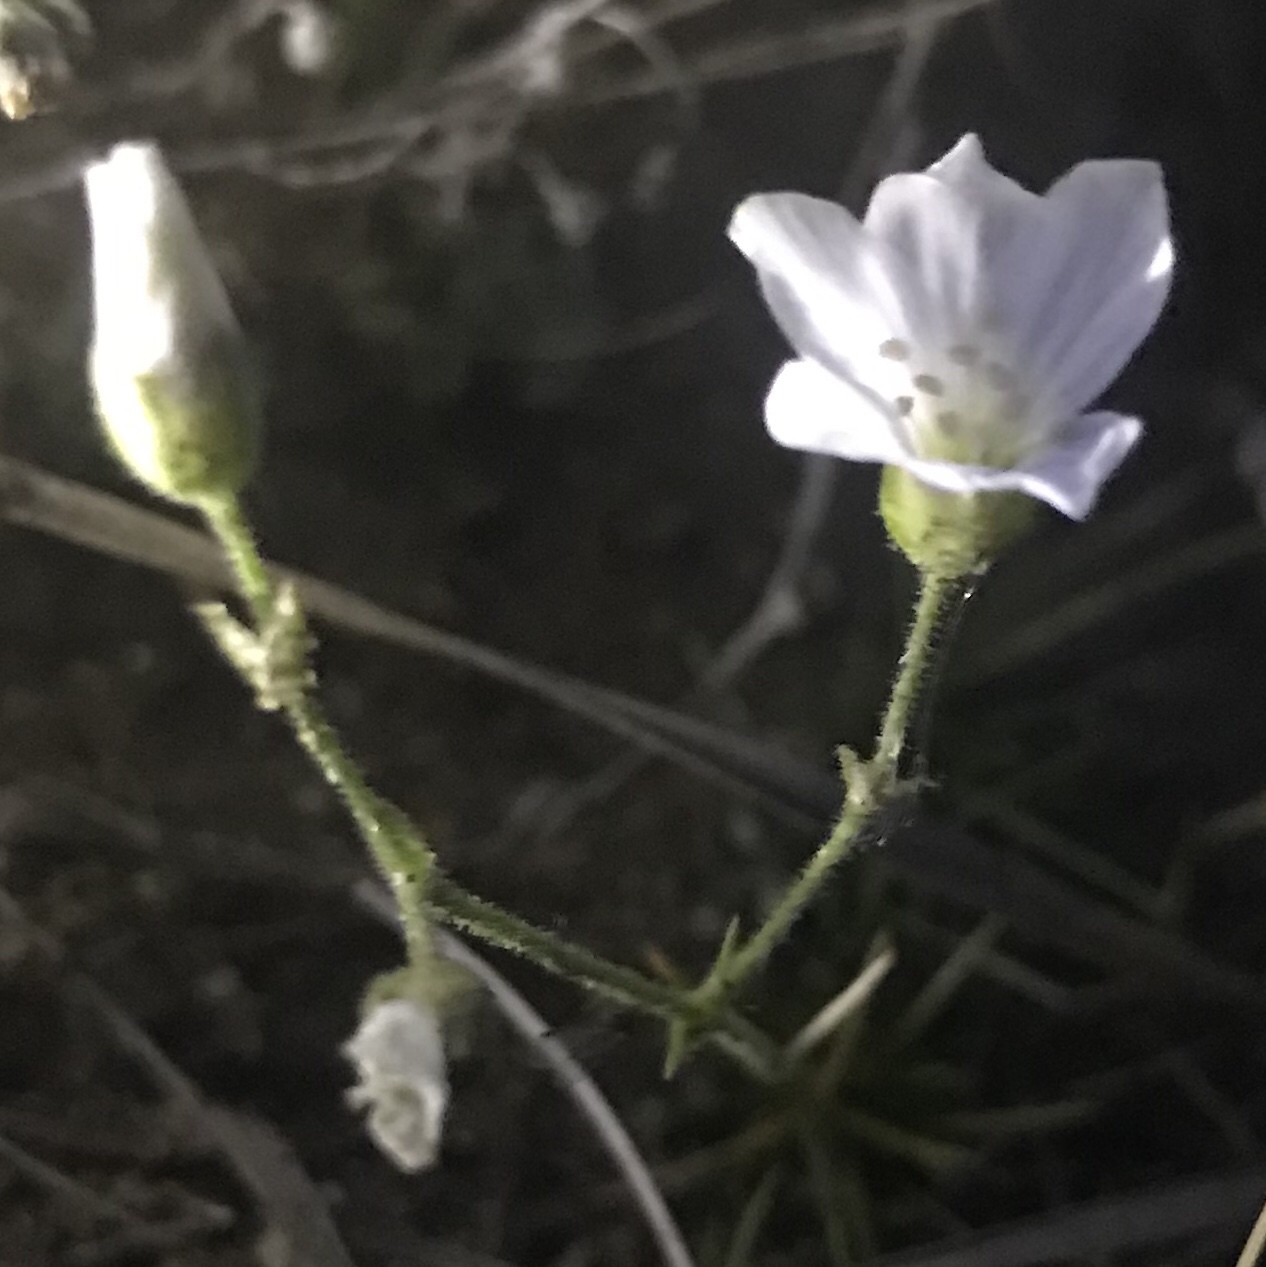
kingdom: Plantae
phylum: Tracheophyta
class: Magnoliopsida
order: Caryophyllales
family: Caryophyllaceae
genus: Eremogone
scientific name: Eremogone meyeri
